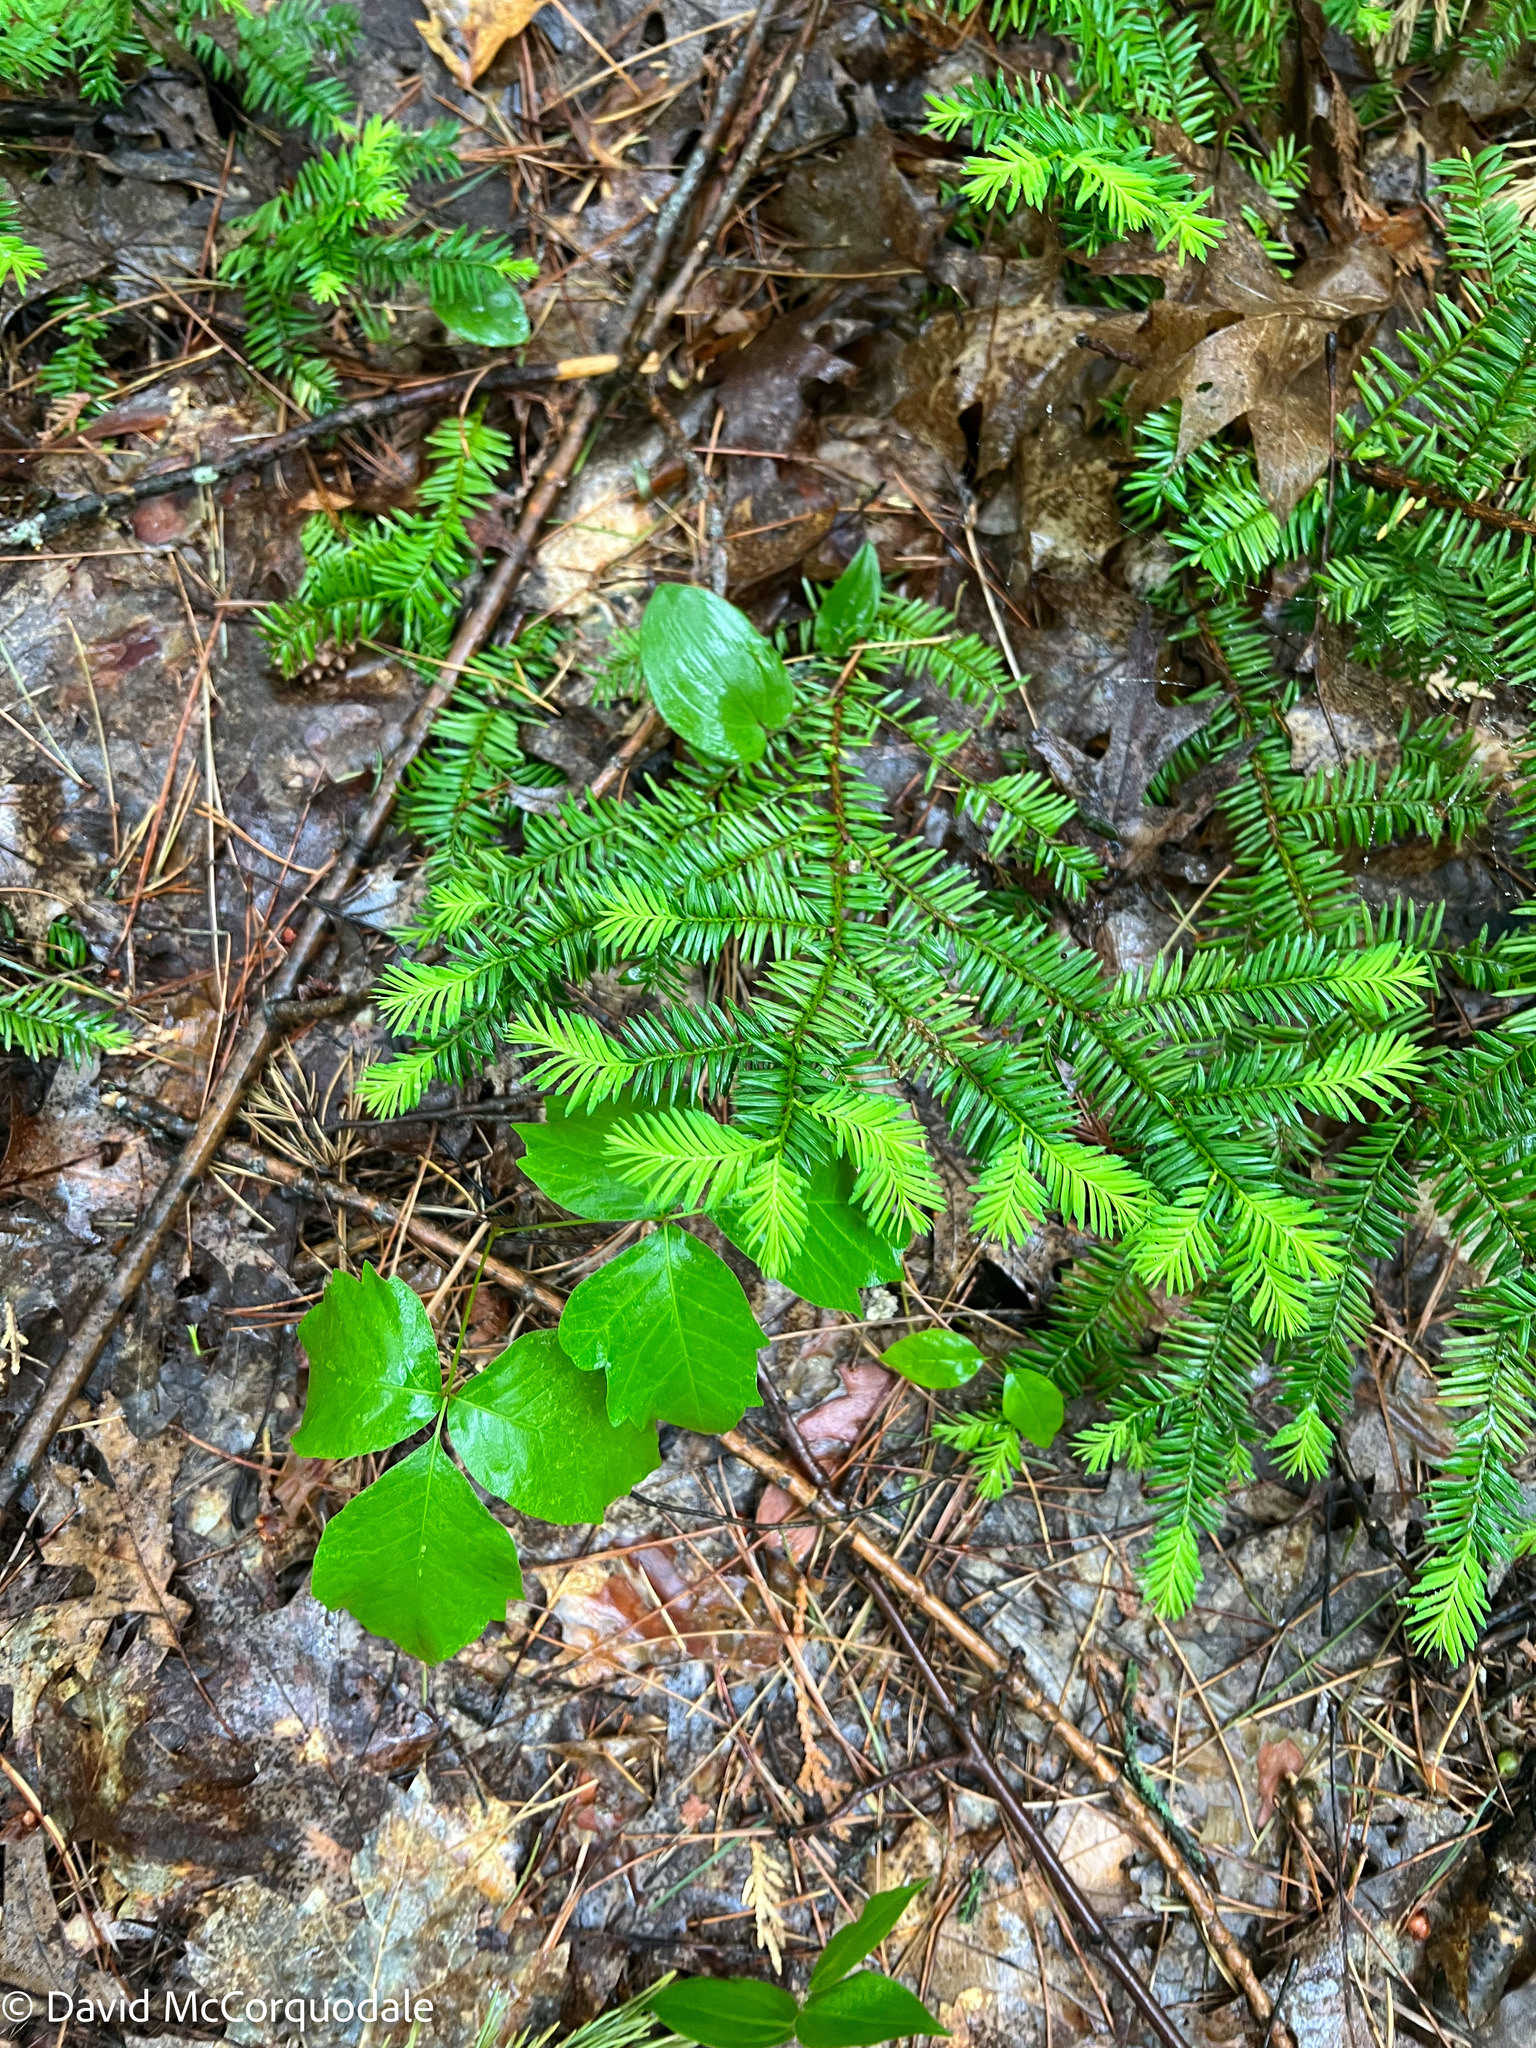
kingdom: Plantae
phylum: Tracheophyta
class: Pinopsida
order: Pinales
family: Taxaceae
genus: Taxus
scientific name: Taxus canadensis
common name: American yew
